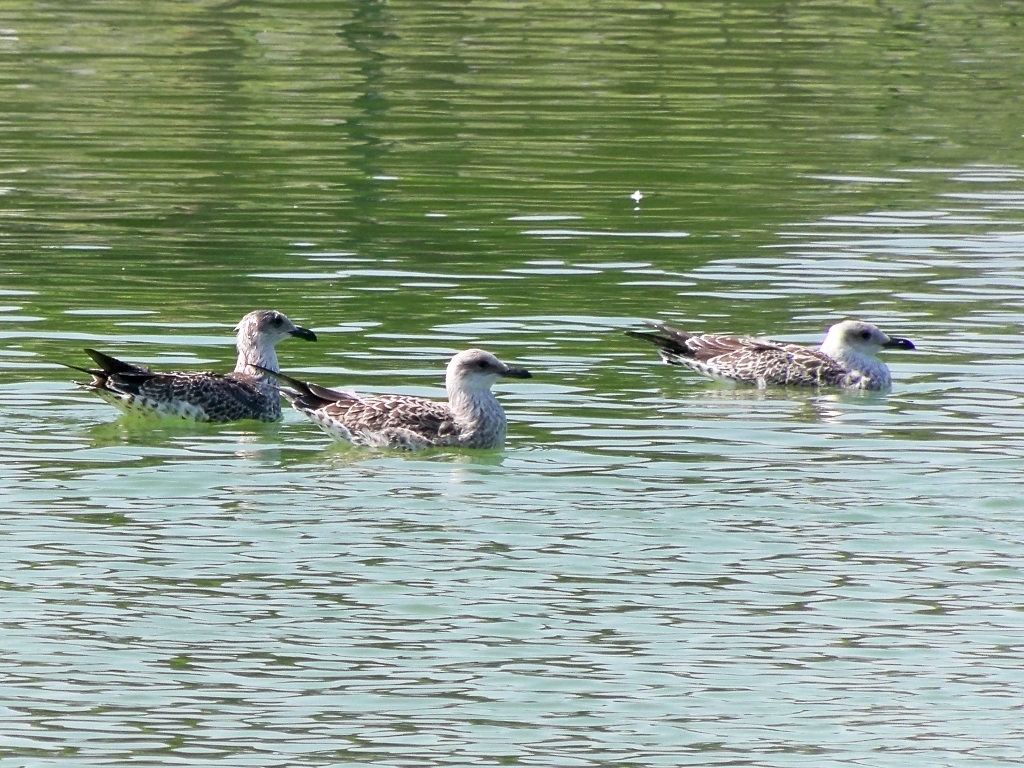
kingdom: Animalia
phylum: Chordata
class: Aves
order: Charadriiformes
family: Laridae
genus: Larus
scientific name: Larus michahellis
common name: Yellow-legged gull
